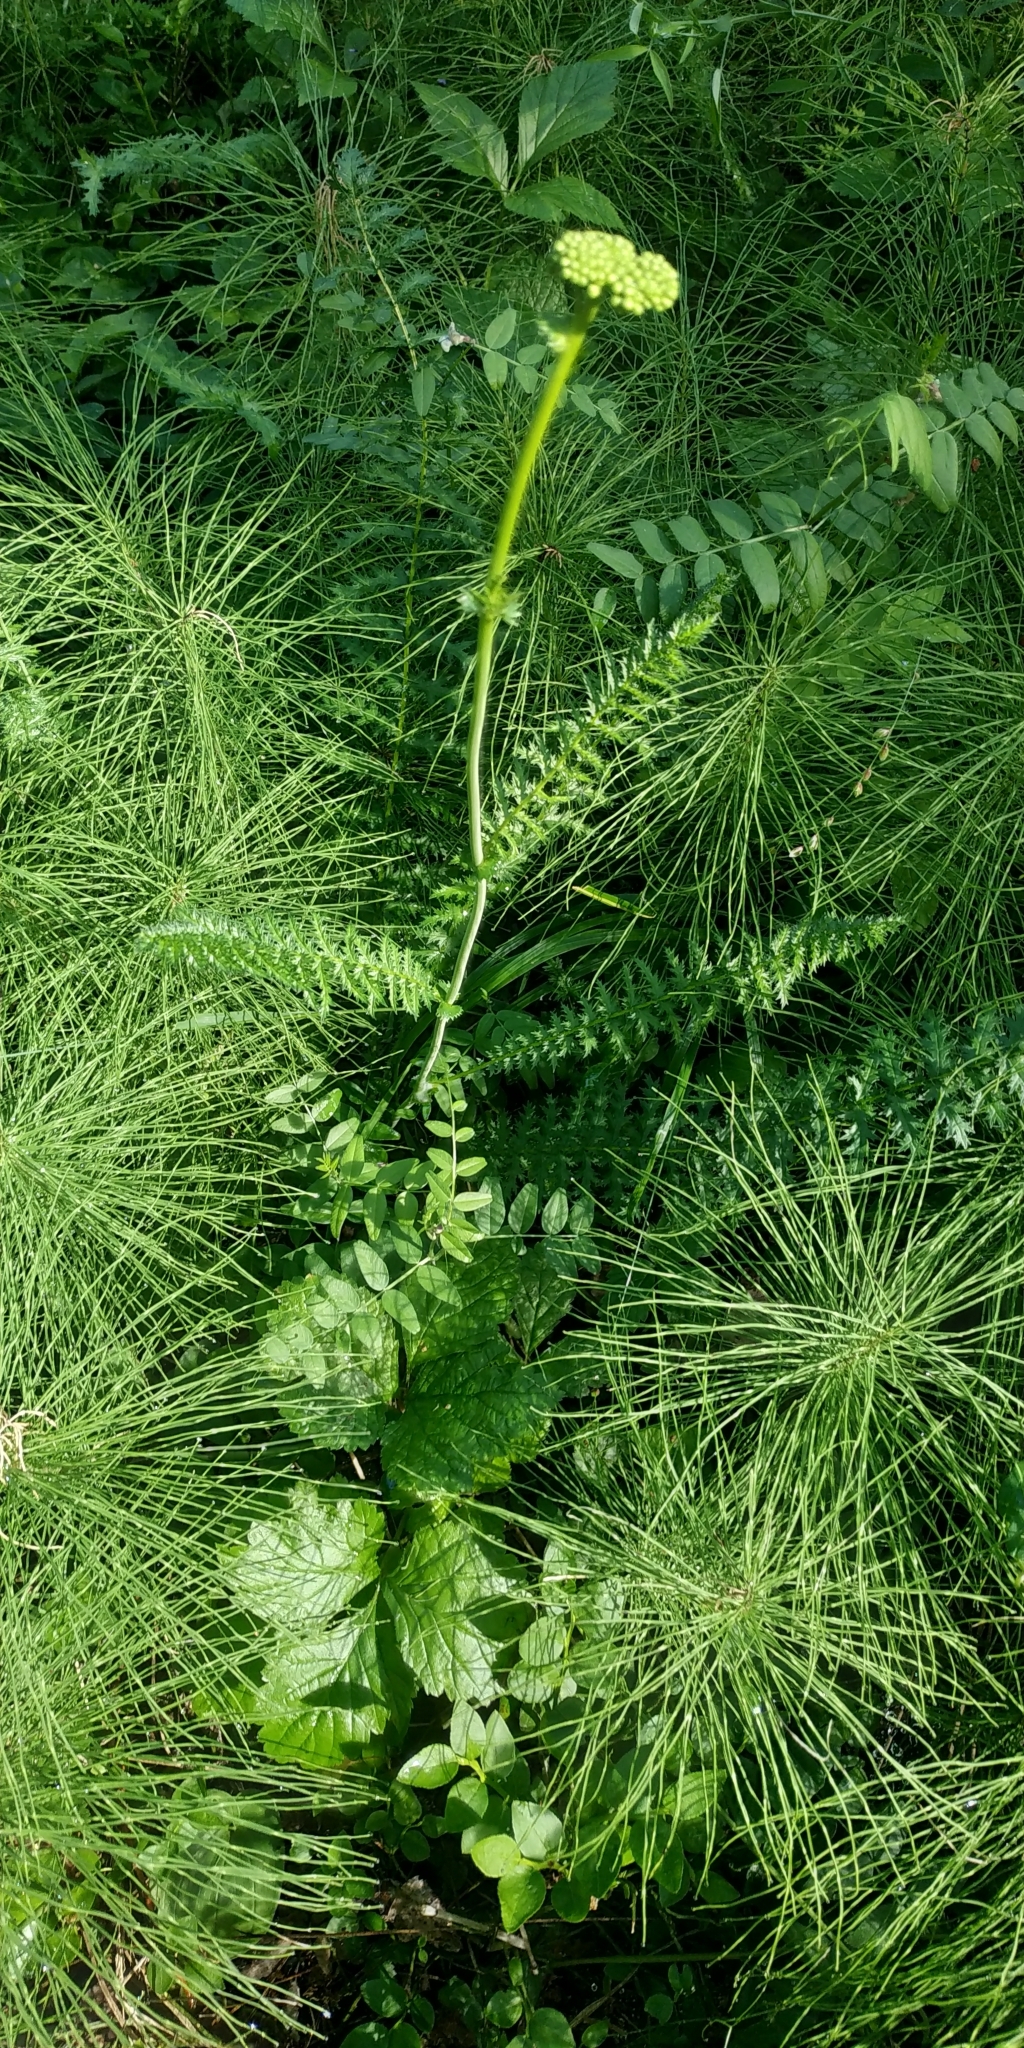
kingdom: Plantae
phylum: Tracheophyta
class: Magnoliopsida
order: Rosales
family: Rosaceae
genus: Filipendula
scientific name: Filipendula vulgaris
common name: Dropwort
